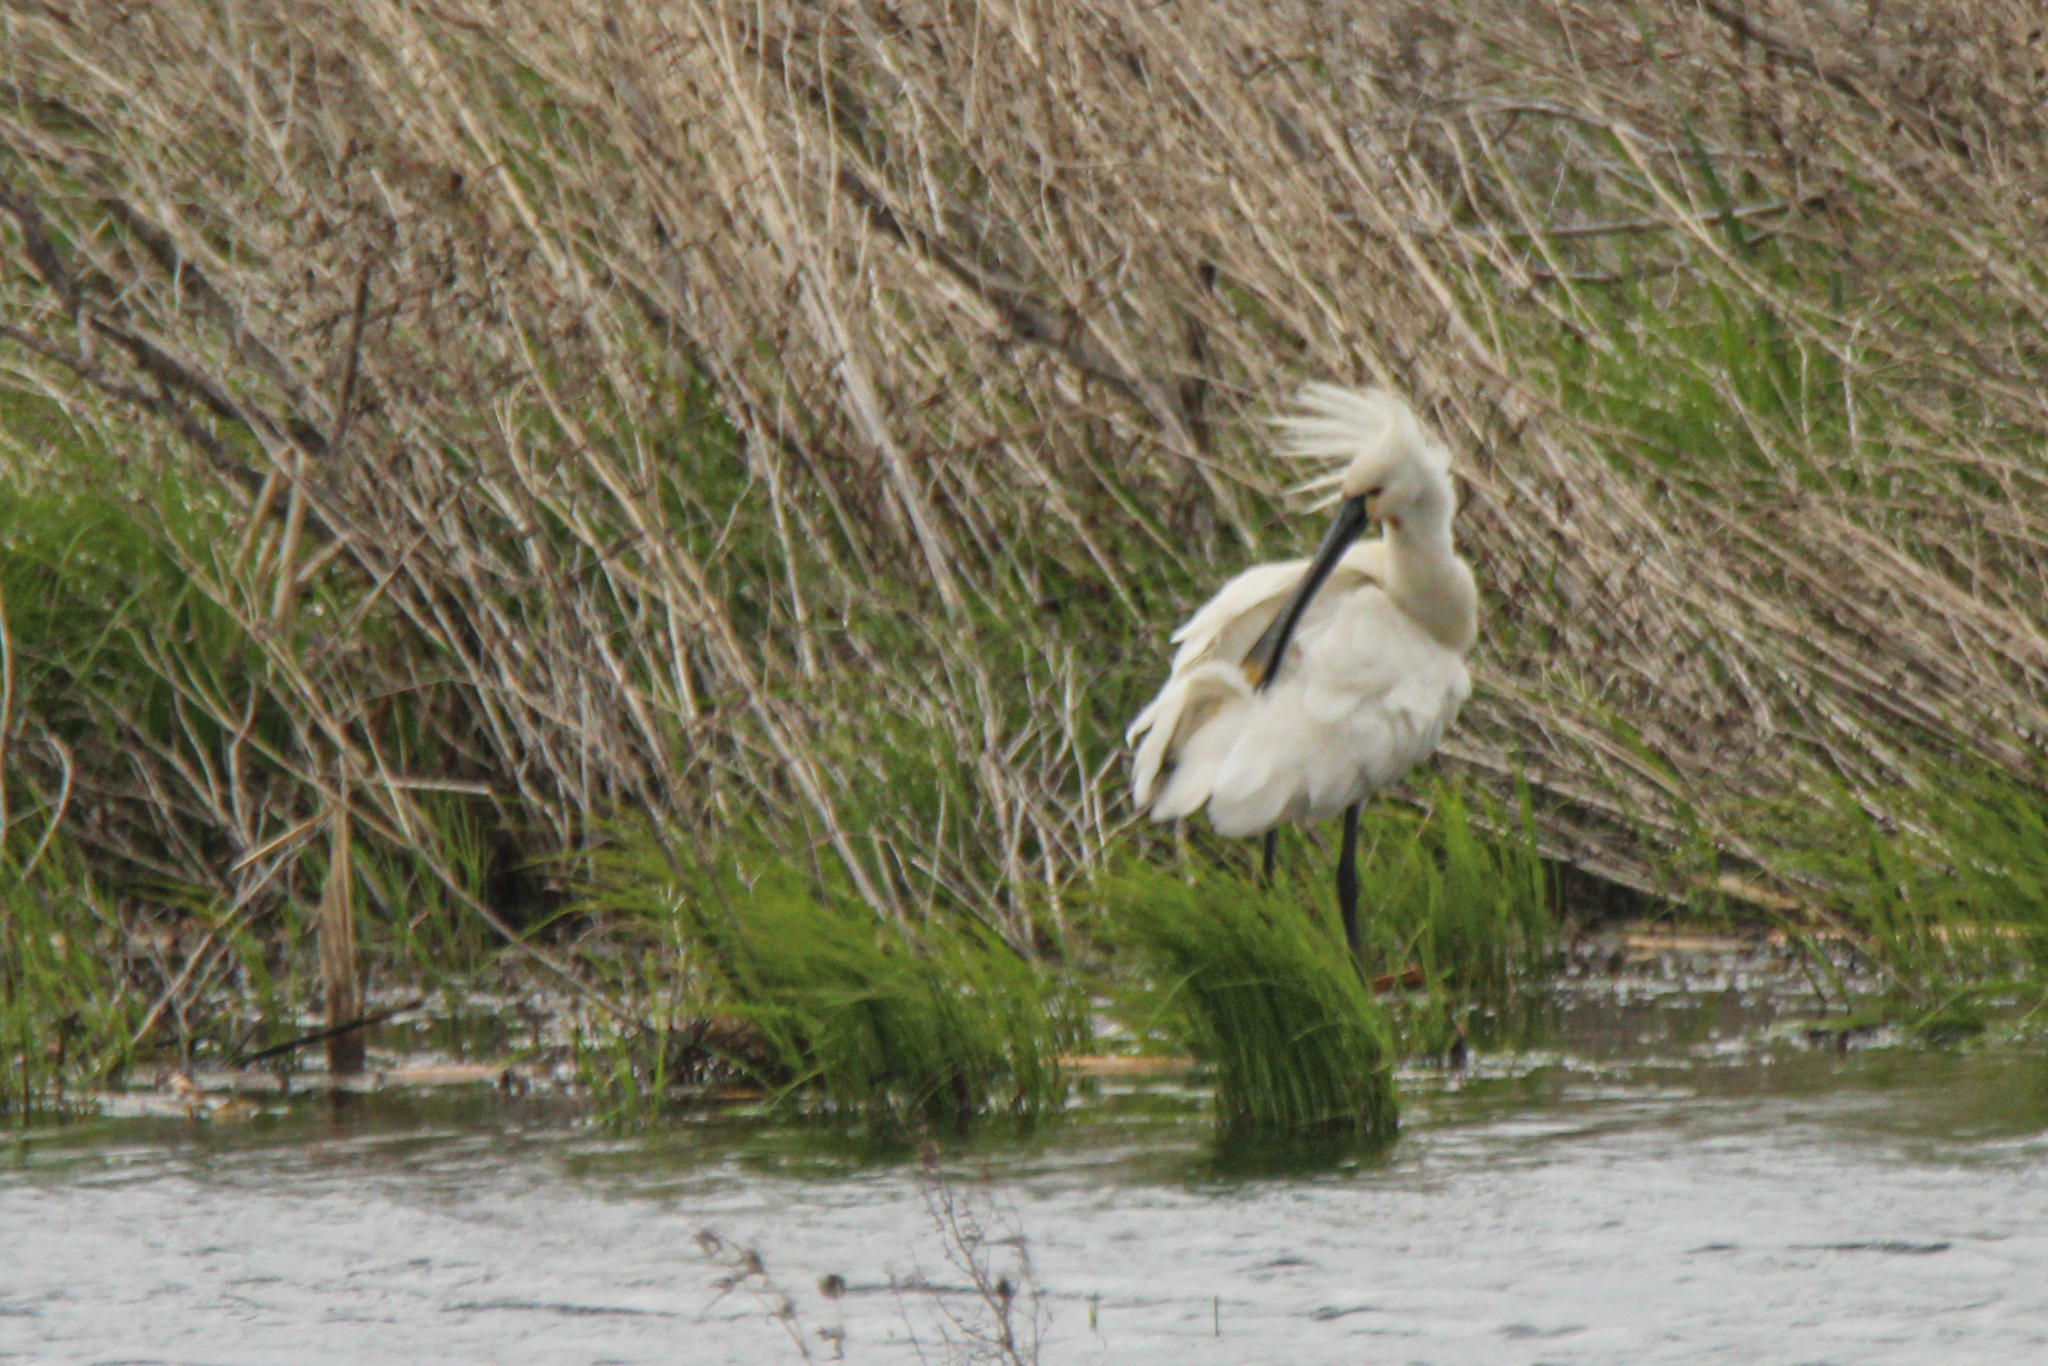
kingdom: Animalia
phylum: Chordata
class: Aves
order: Pelecaniformes
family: Threskiornithidae
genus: Platalea
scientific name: Platalea leucorodia
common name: Eurasian spoonbill
